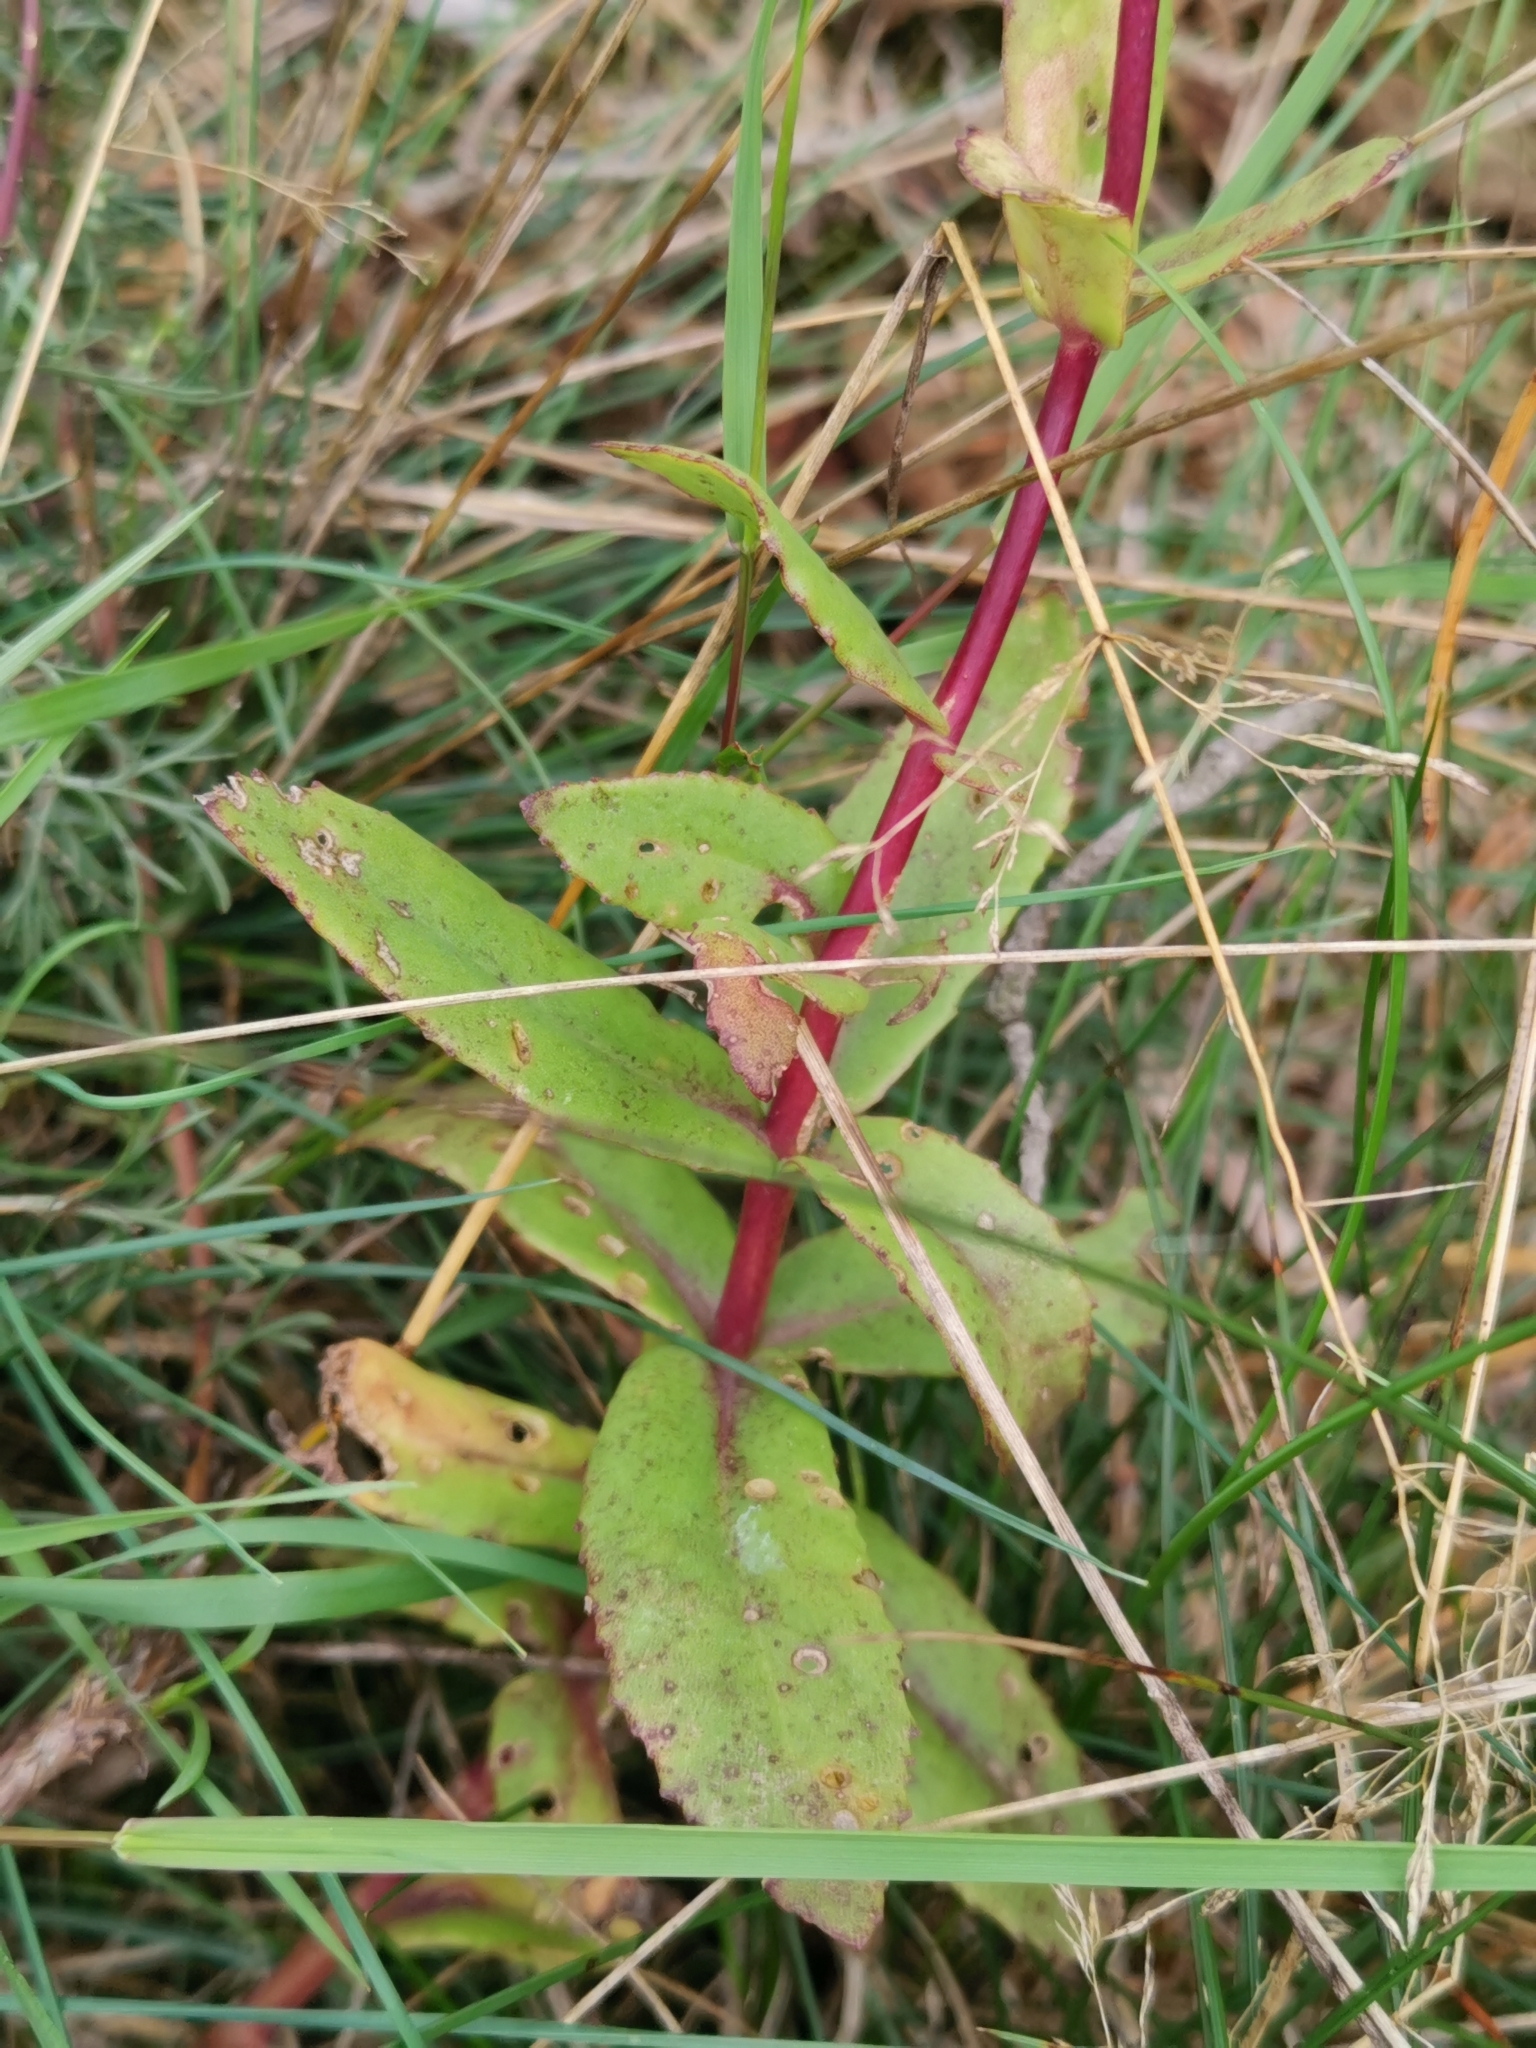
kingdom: Plantae
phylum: Tracheophyta
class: Magnoliopsida
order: Saxifragales
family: Crassulaceae
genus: Hylotelephium
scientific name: Hylotelephium maximum
